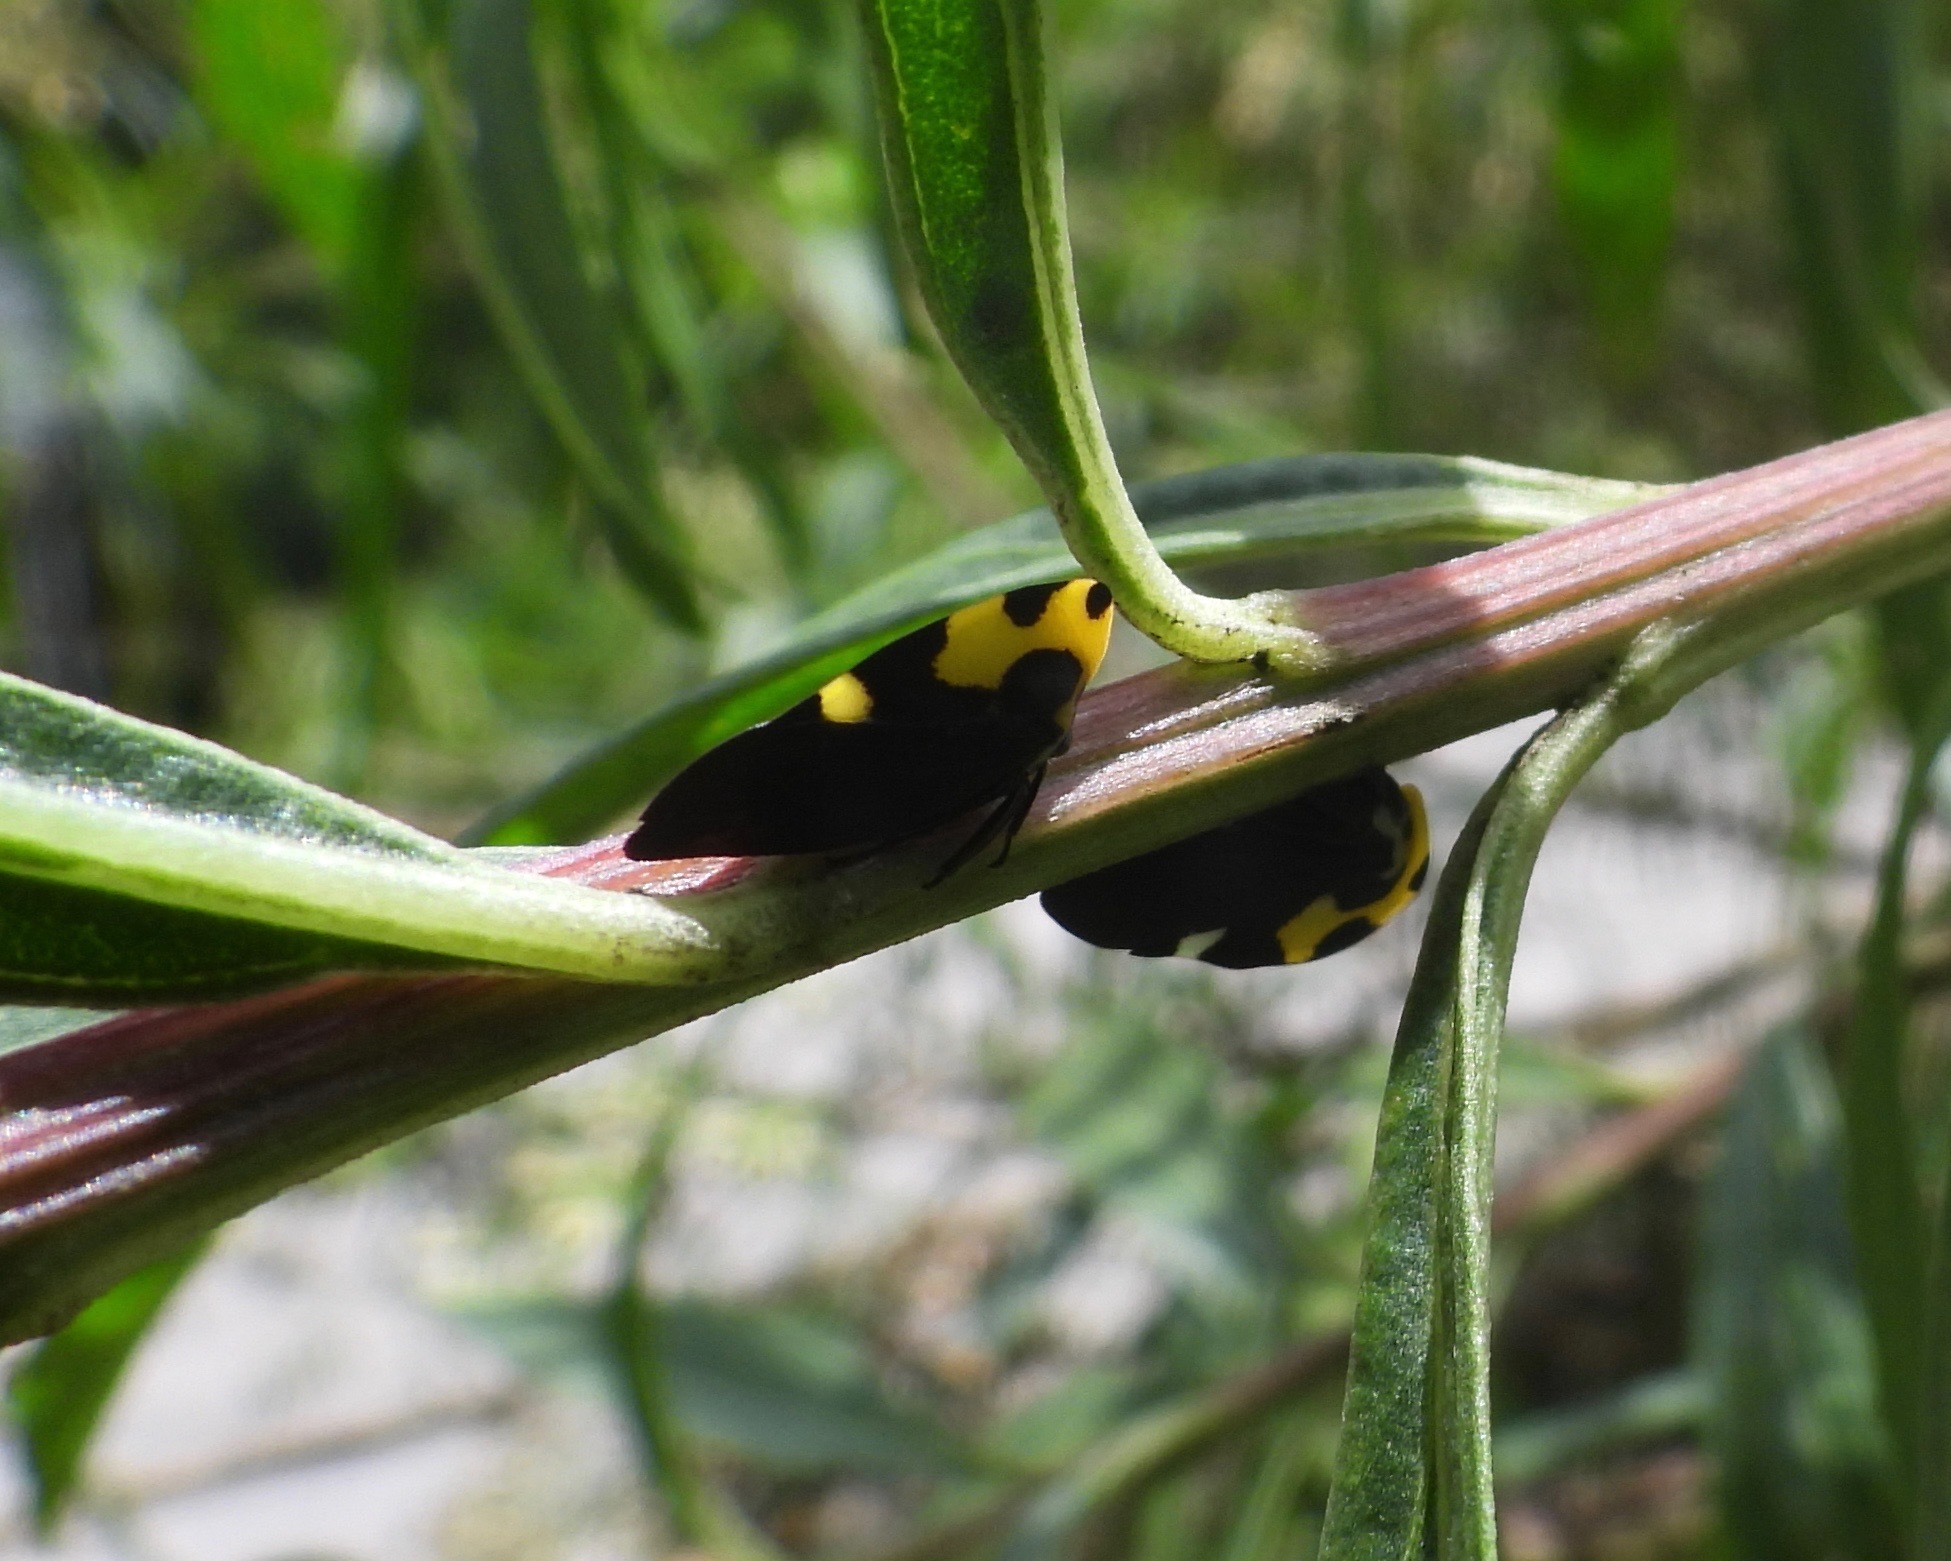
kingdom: Animalia
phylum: Arthropoda
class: Insecta
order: Hemiptera
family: Membracidae
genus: Membracis
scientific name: Membracis mexicana
